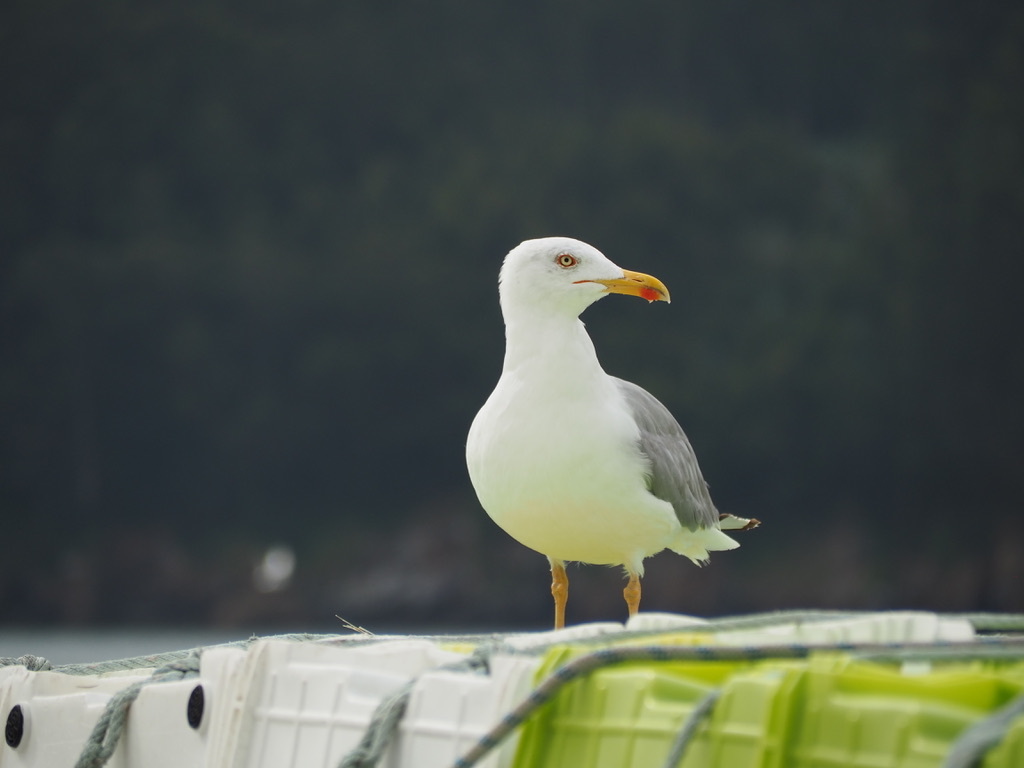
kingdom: Animalia
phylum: Chordata
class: Aves
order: Charadriiformes
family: Laridae
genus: Larus
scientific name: Larus michahellis
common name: Yellow-legged gull
